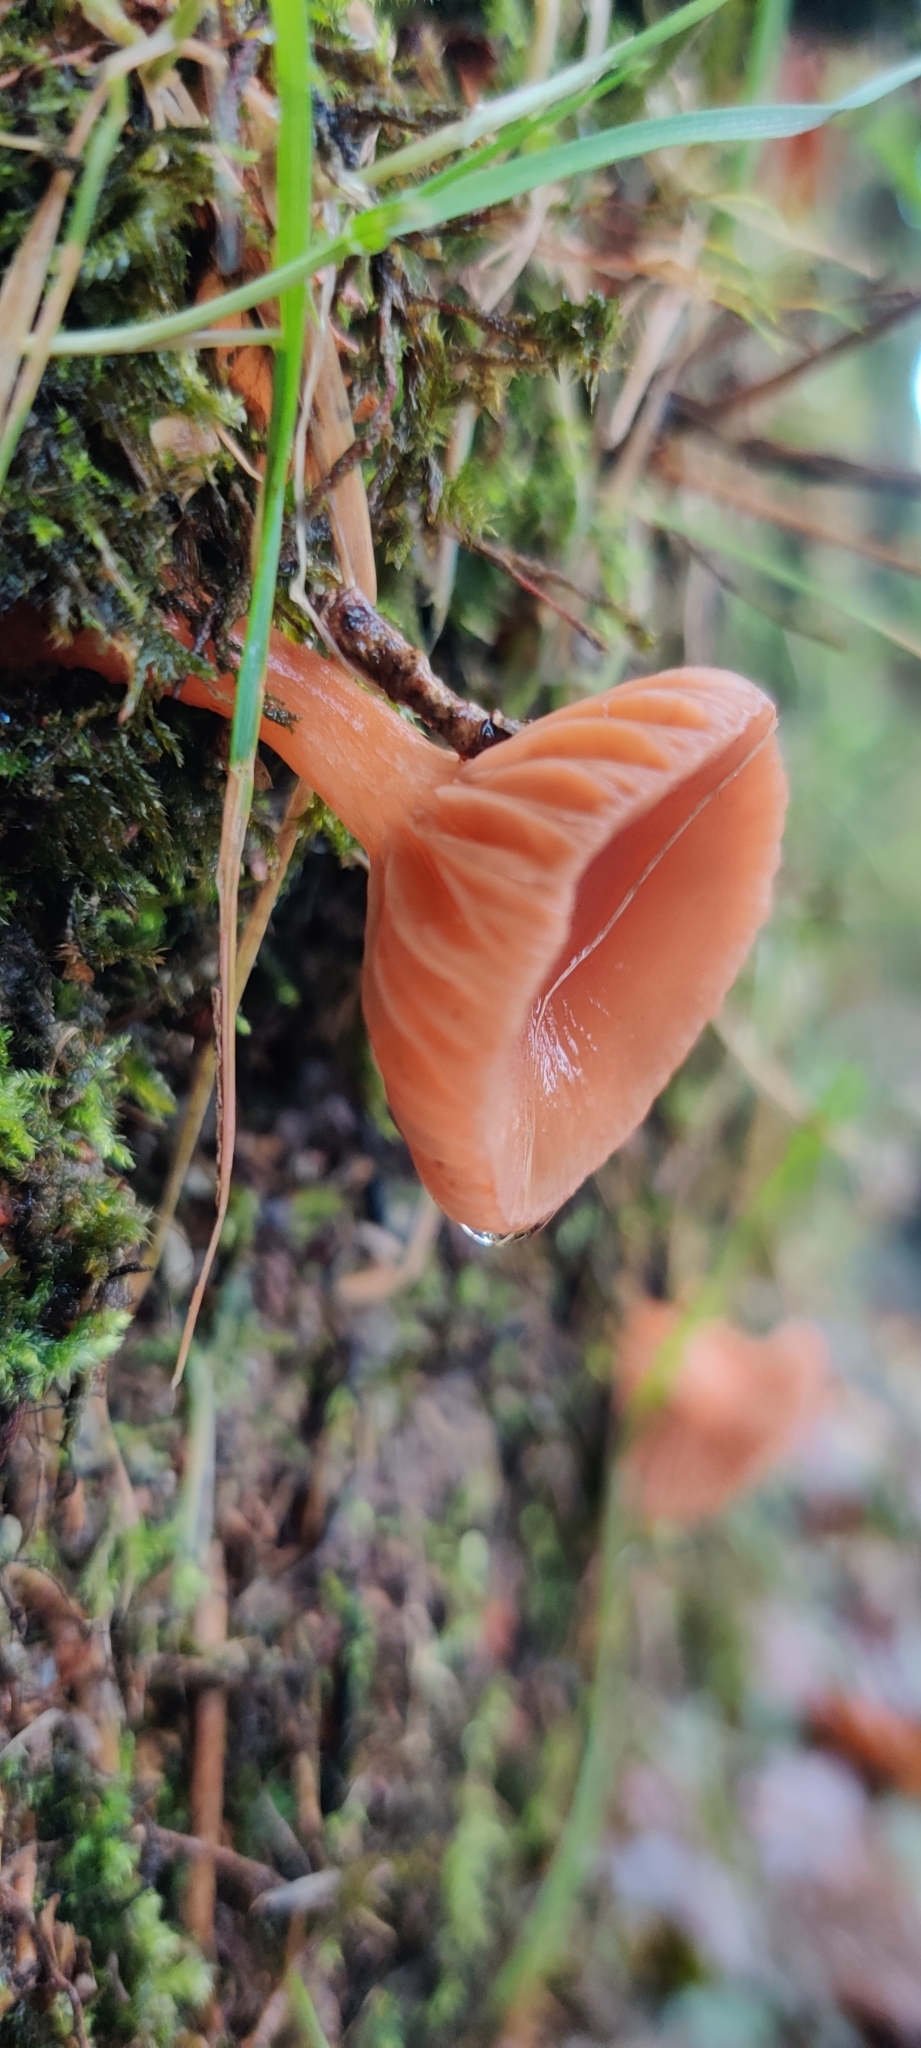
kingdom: Fungi
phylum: Basidiomycota
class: Agaricomycetes
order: Agaricales
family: Hydnangiaceae
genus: Laccaria
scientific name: Laccaria laccata
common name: Deceiver
